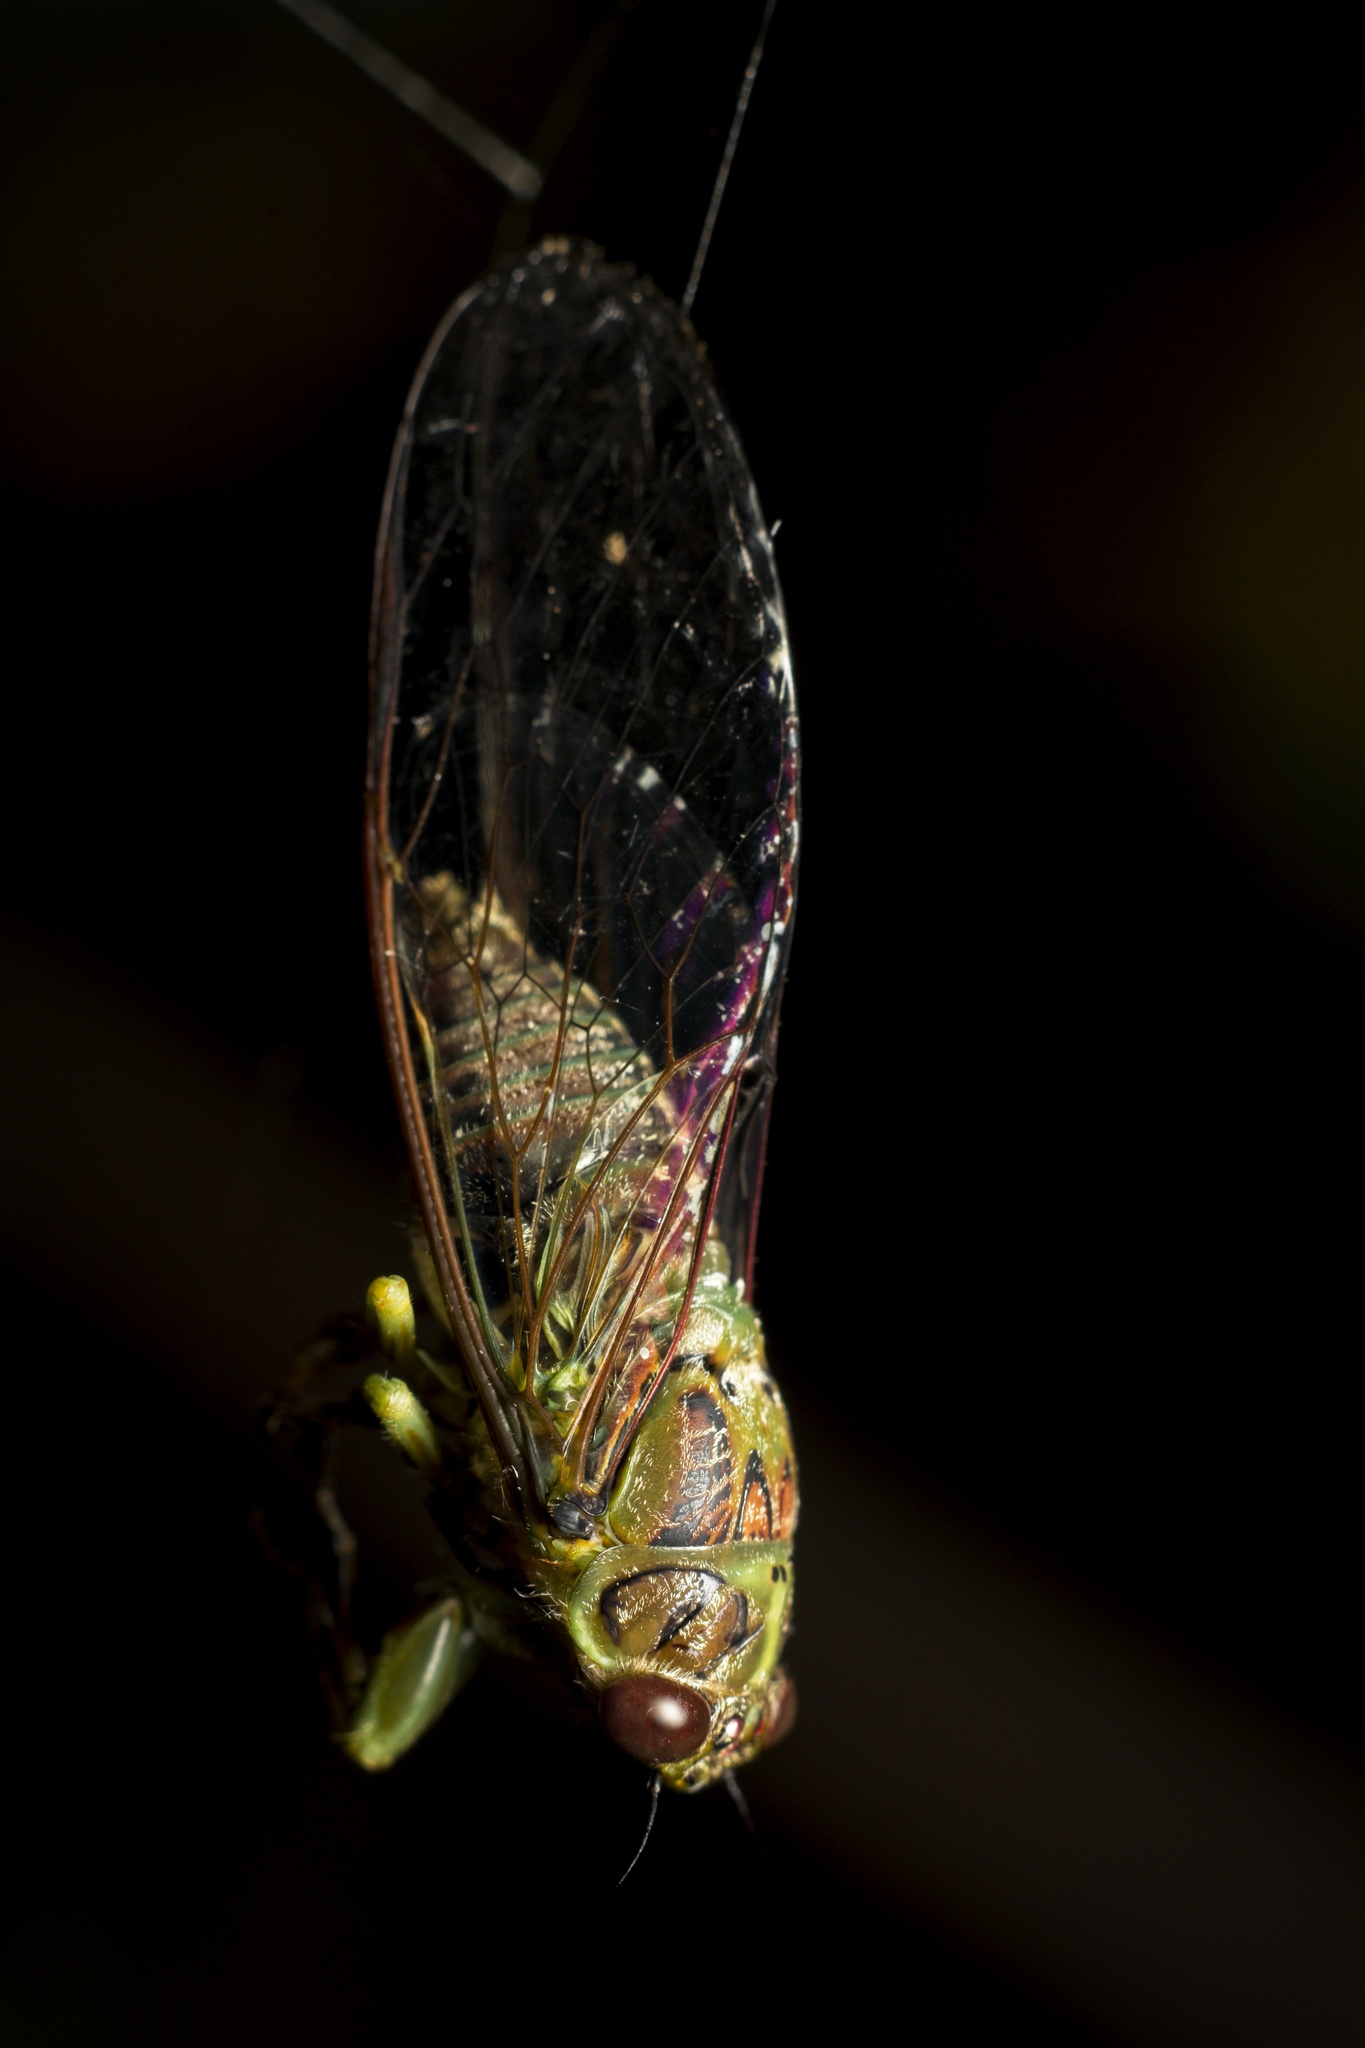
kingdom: Animalia
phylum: Arthropoda
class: Insecta
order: Hemiptera
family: Cicadidae
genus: Kikihia
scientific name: Kikihia scutellaris
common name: Lesser bronze cicada
